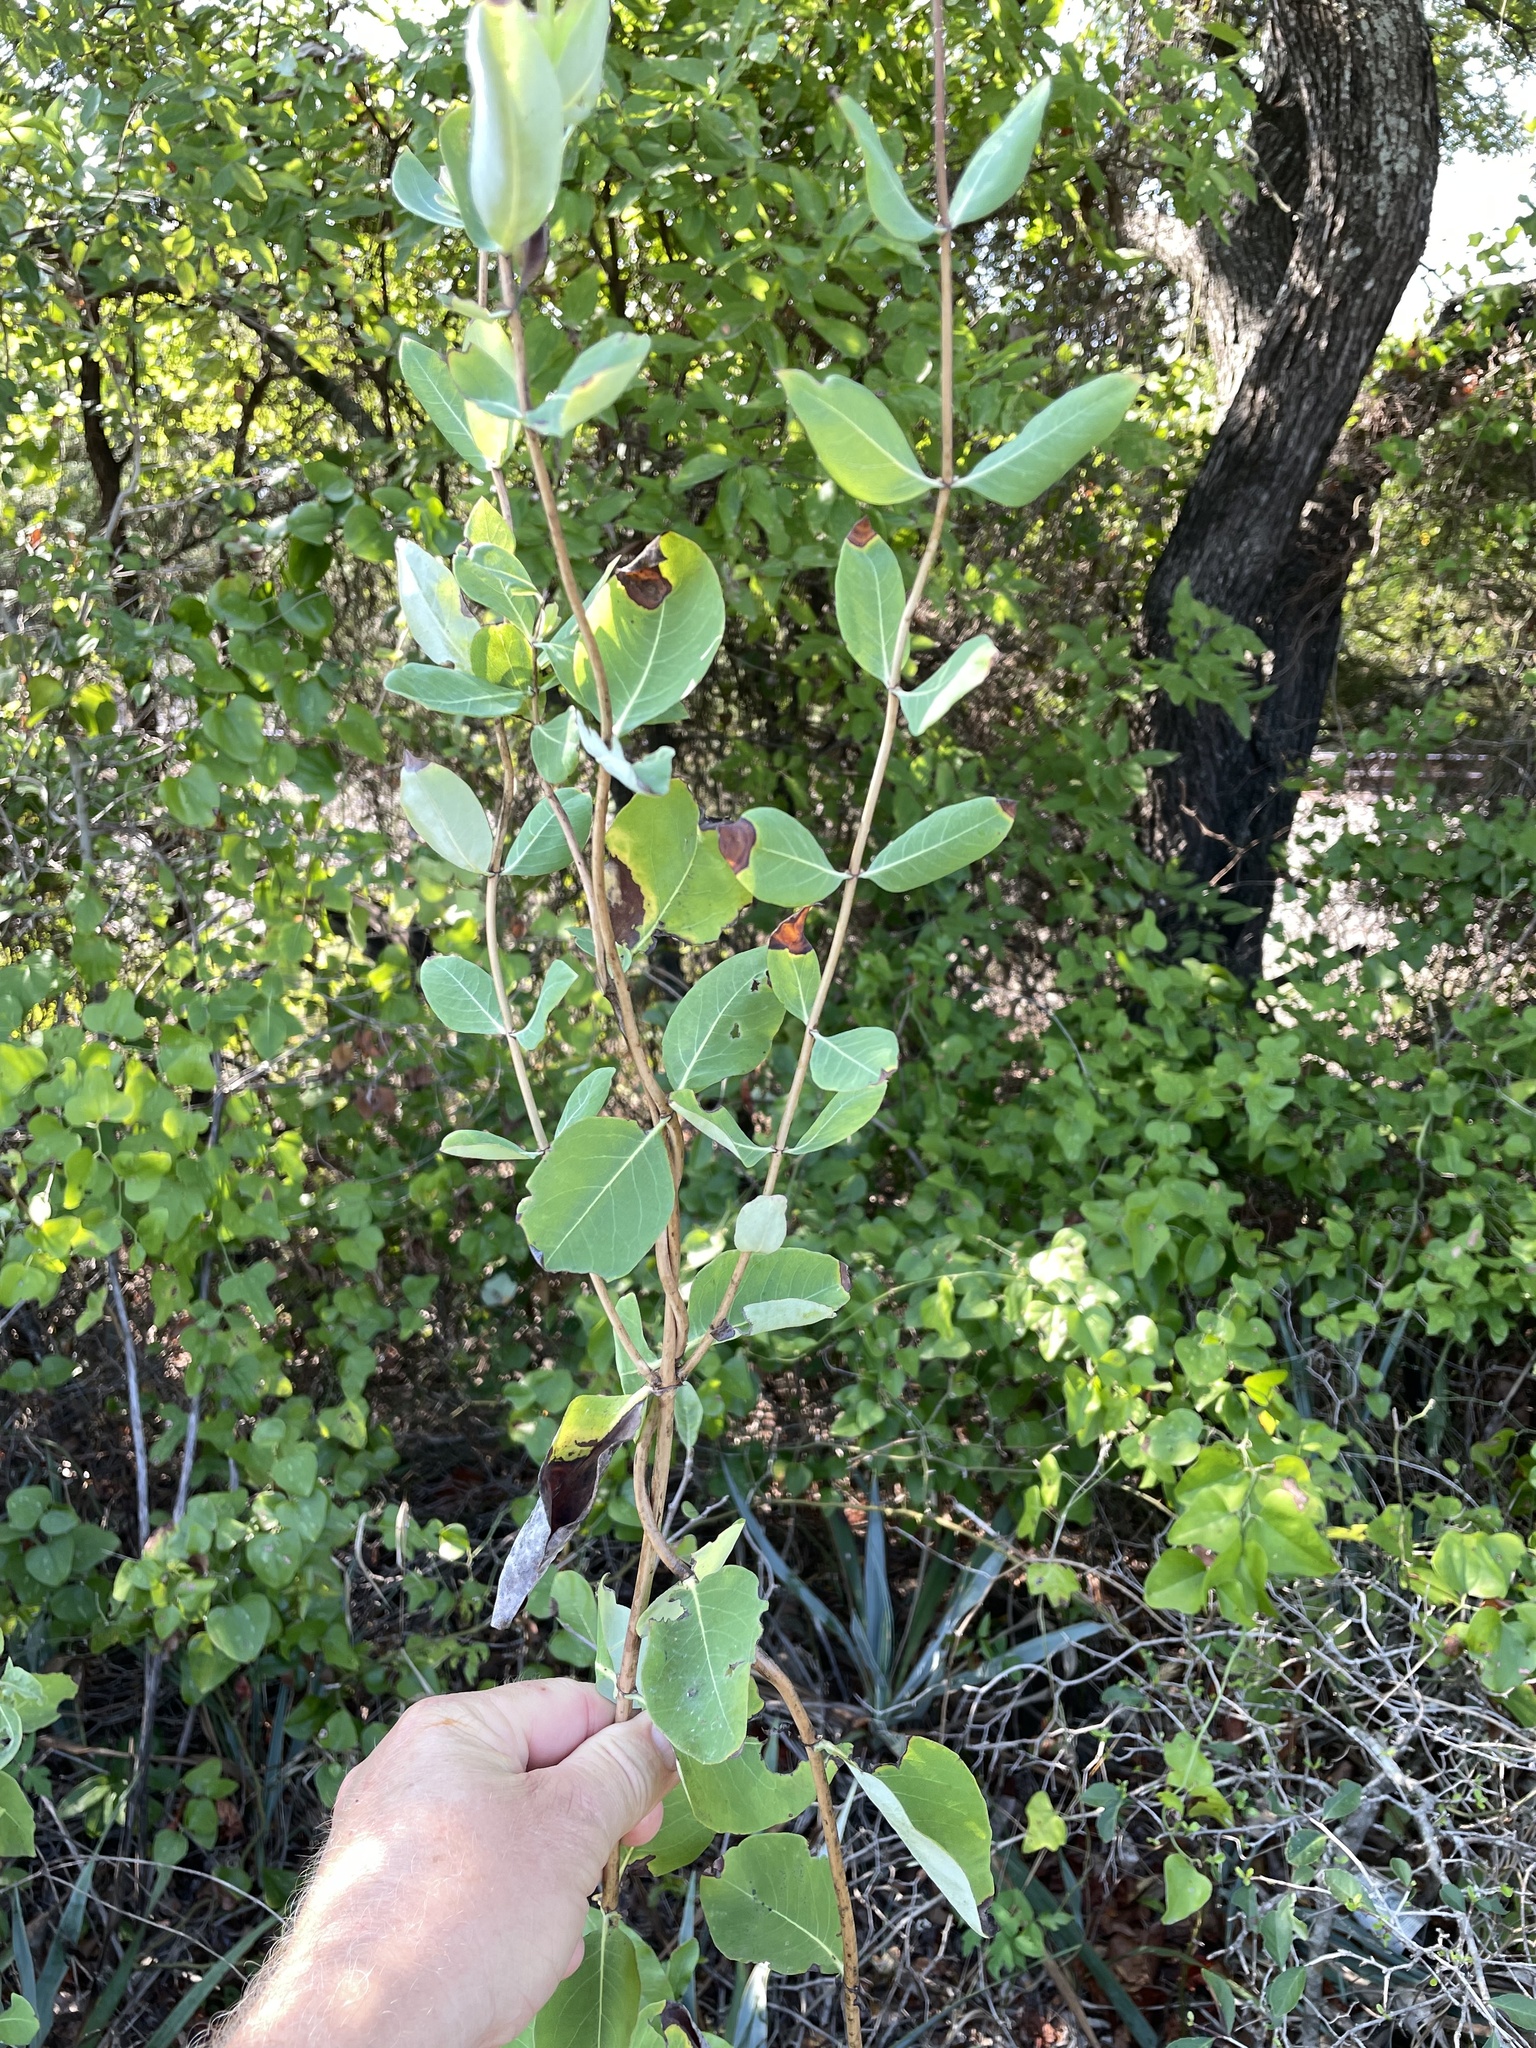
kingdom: Plantae
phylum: Tracheophyta
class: Magnoliopsida
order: Dipsacales
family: Caprifoliaceae
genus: Lonicera
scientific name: Lonicera albiflora
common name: White honeysuckle
